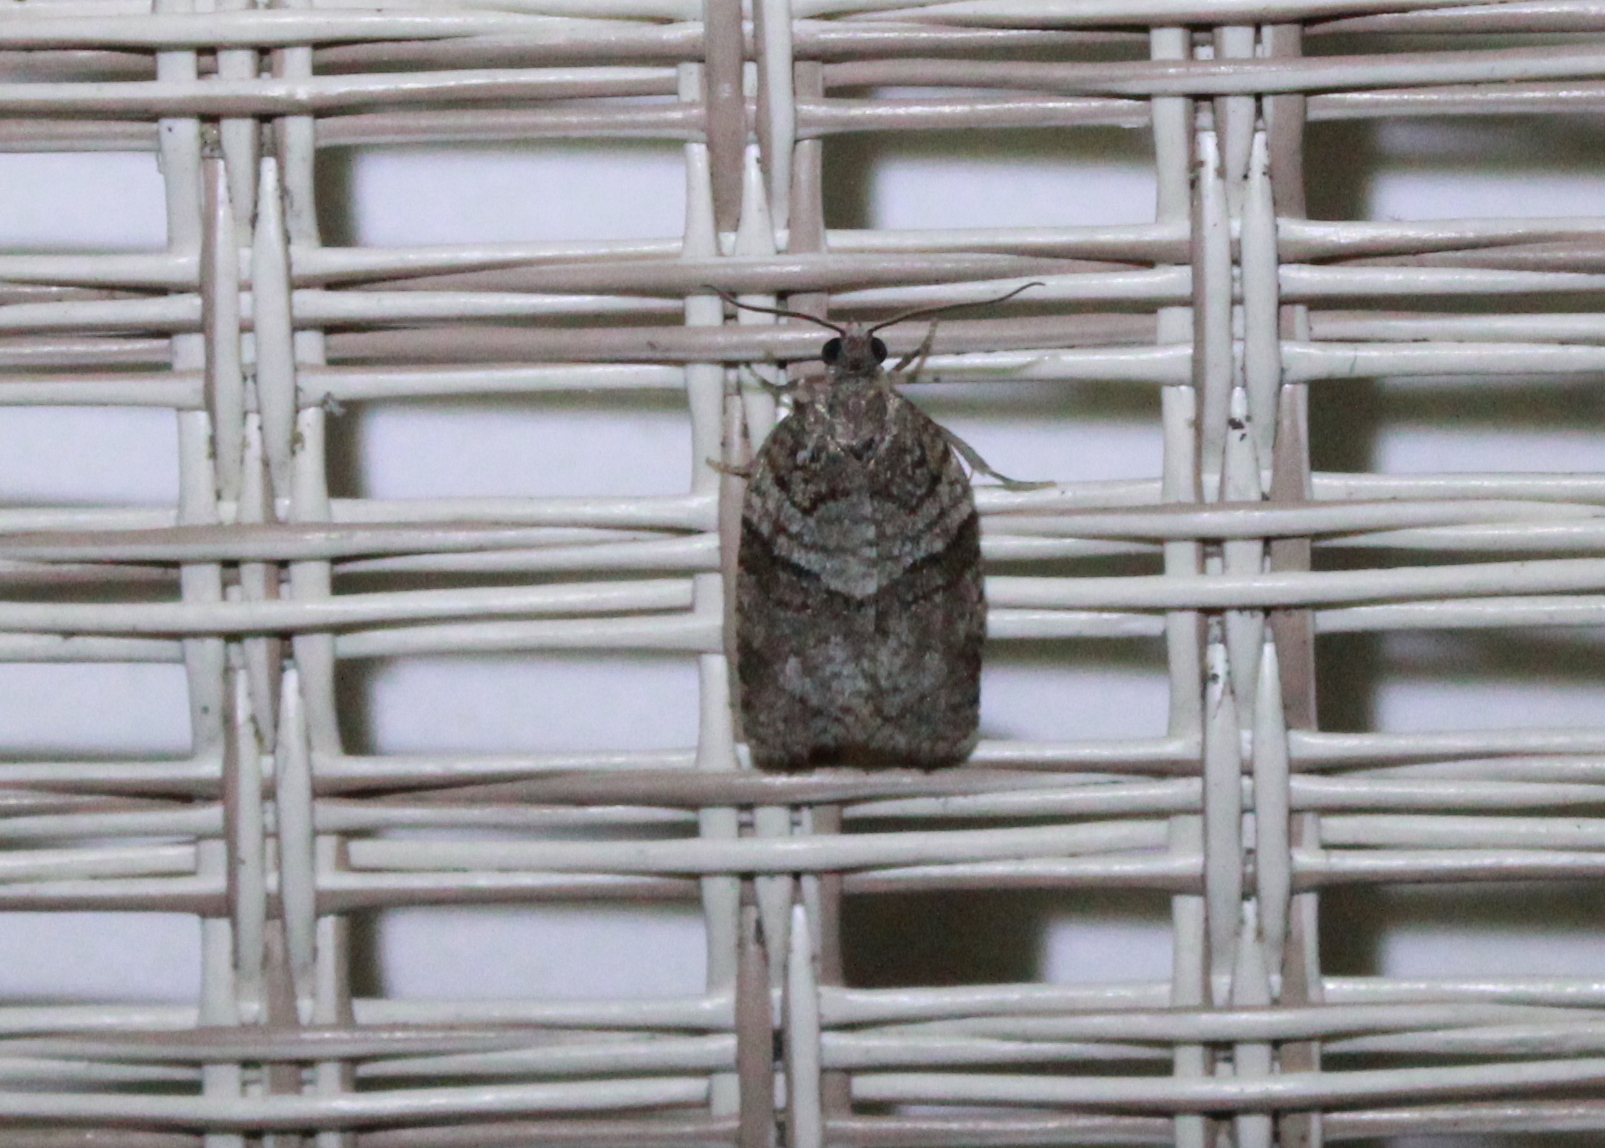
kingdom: Animalia
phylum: Arthropoda
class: Insecta
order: Lepidoptera
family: Tortricidae
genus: Syndemis
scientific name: Syndemis afflictana
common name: Gray leafroller moth
